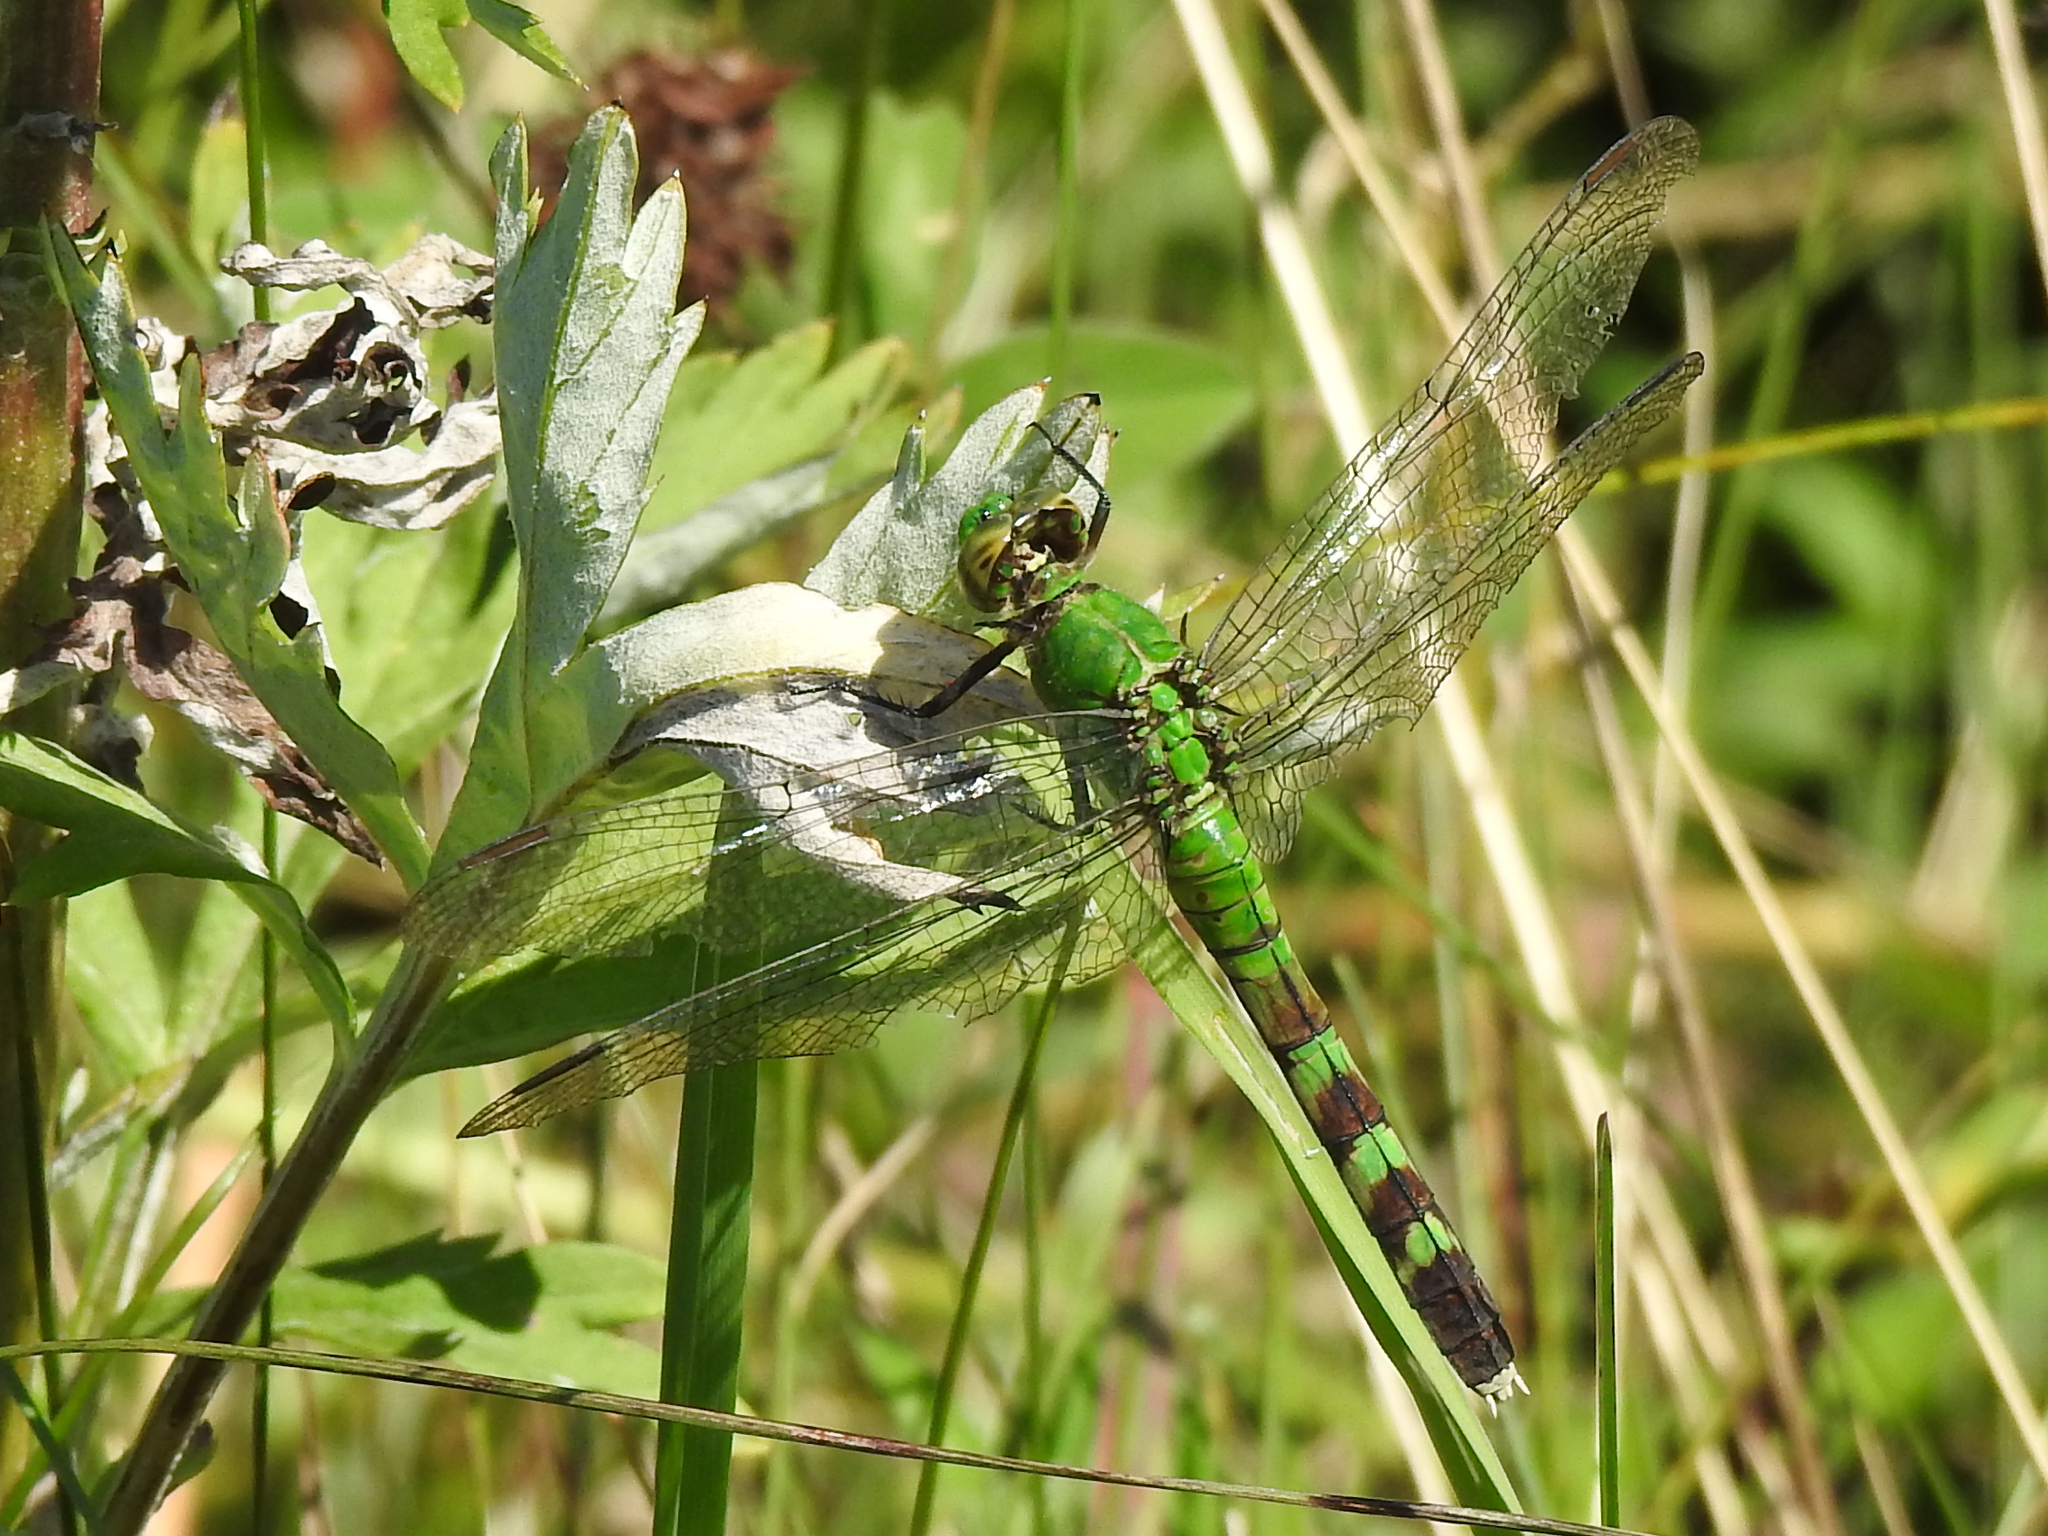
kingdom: Animalia
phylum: Arthropoda
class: Insecta
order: Odonata
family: Libellulidae
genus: Erythemis
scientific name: Erythemis simplicicollis
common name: Eastern pondhawk
